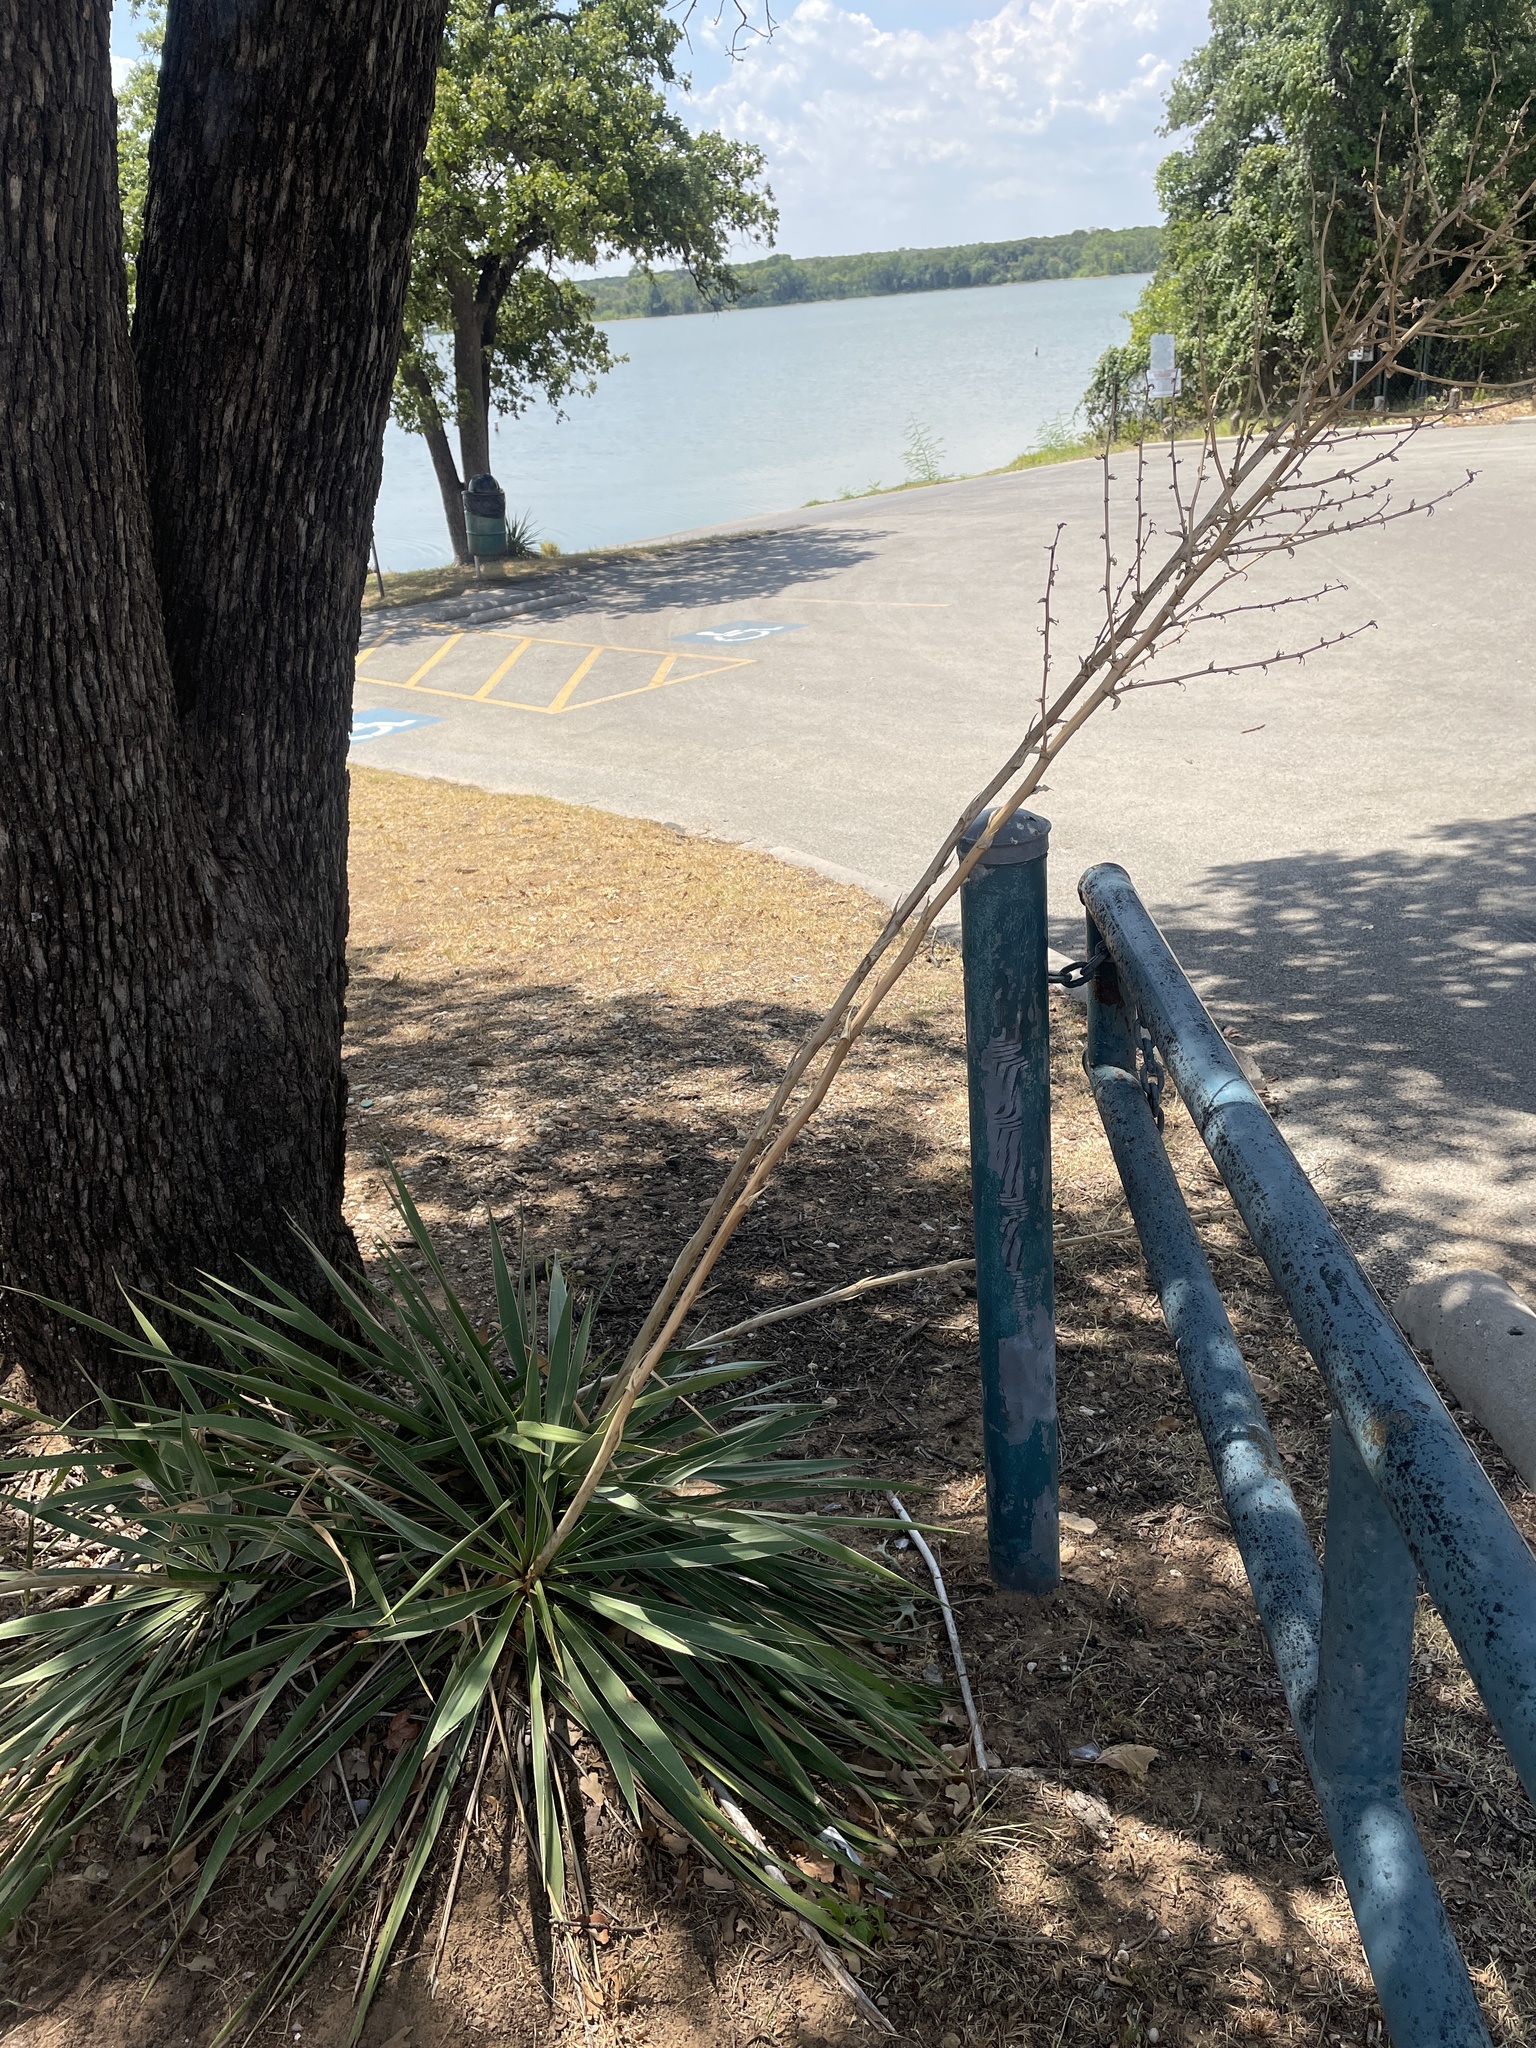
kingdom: Plantae
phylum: Tracheophyta
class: Liliopsida
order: Asparagales
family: Asparagaceae
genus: Yucca
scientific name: Yucca necopina
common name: Glen rose yucca
